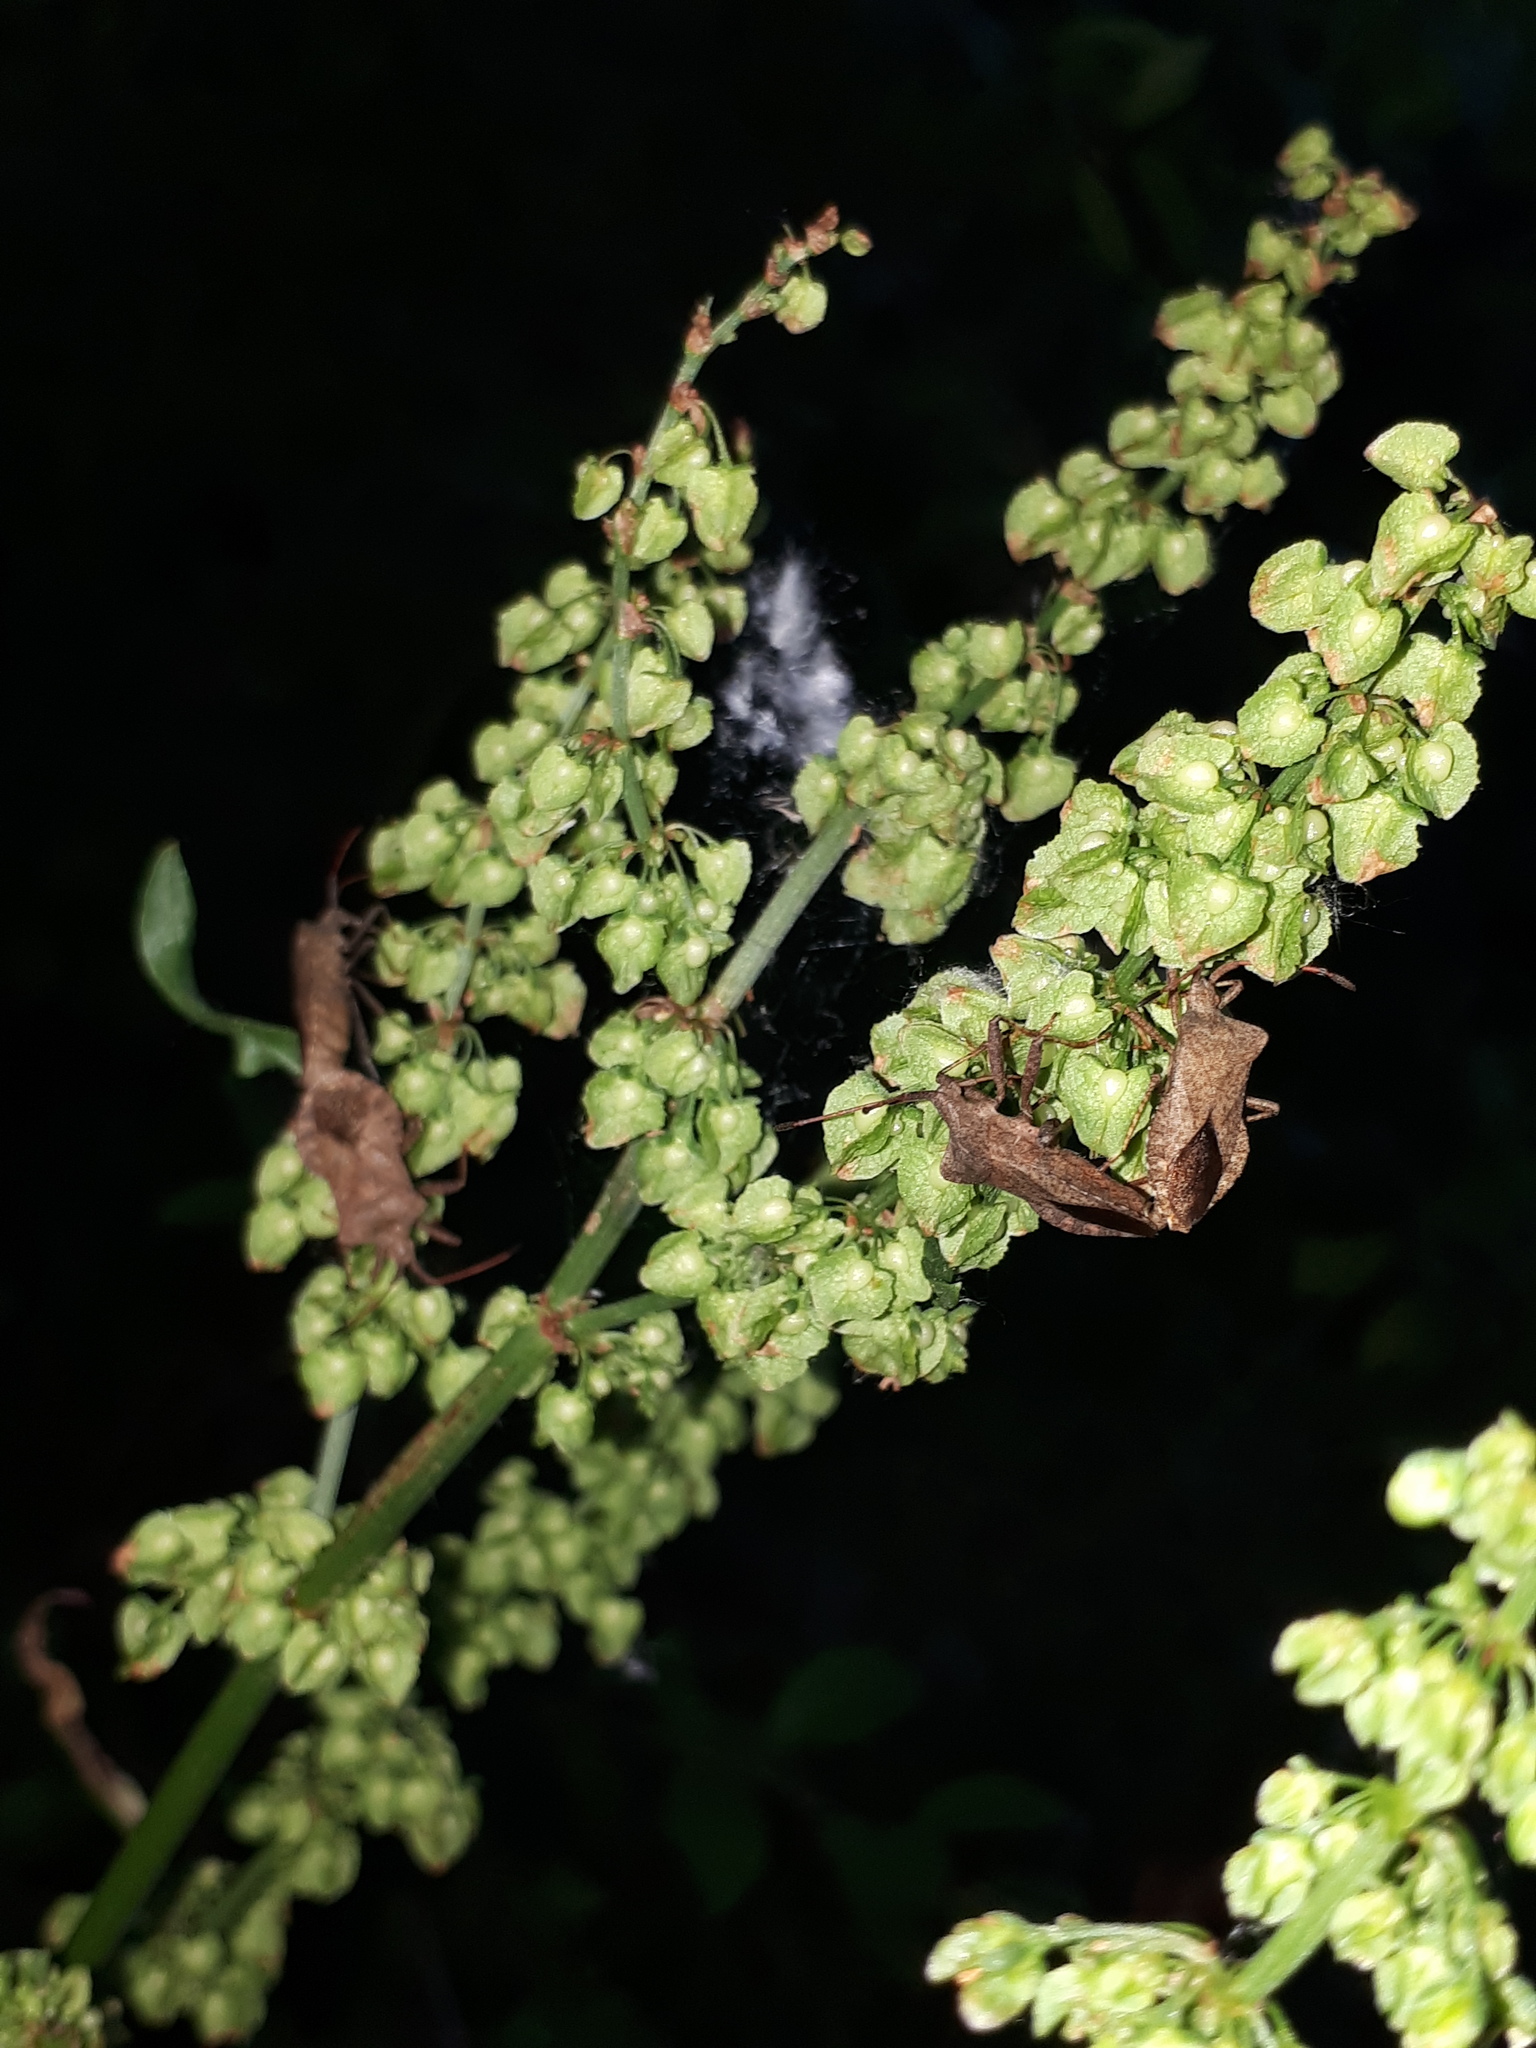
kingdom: Animalia
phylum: Arthropoda
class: Insecta
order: Hemiptera
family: Coreidae
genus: Coreus
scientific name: Coreus marginatus
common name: Dock bug
